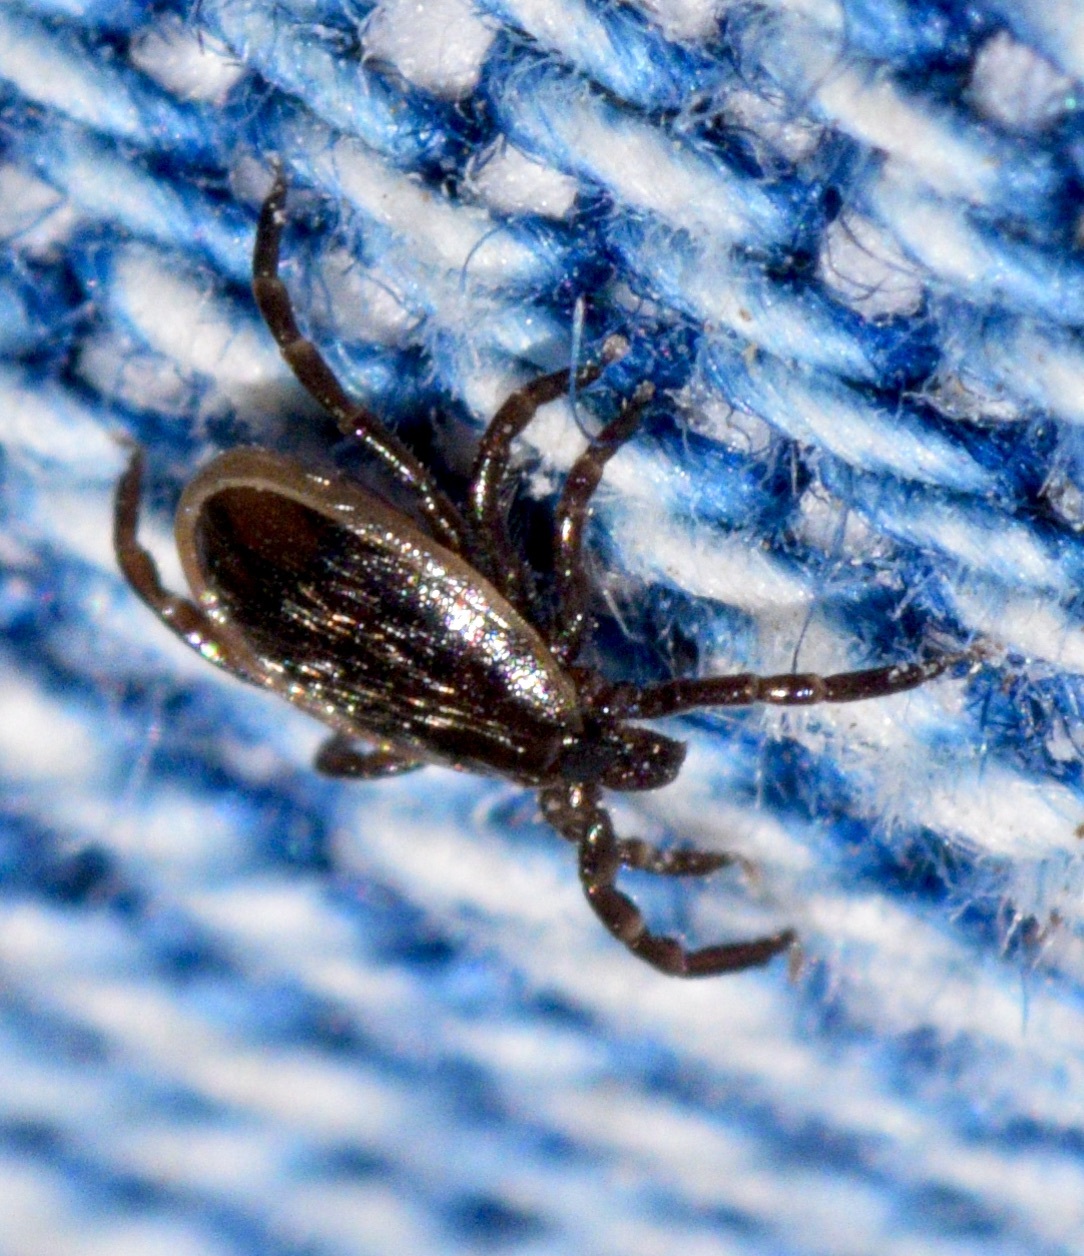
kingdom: Animalia
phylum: Arthropoda
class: Arachnida
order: Ixodida
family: Ixodidae
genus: Ixodes
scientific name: Ixodes scapularis
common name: Black legged tick
